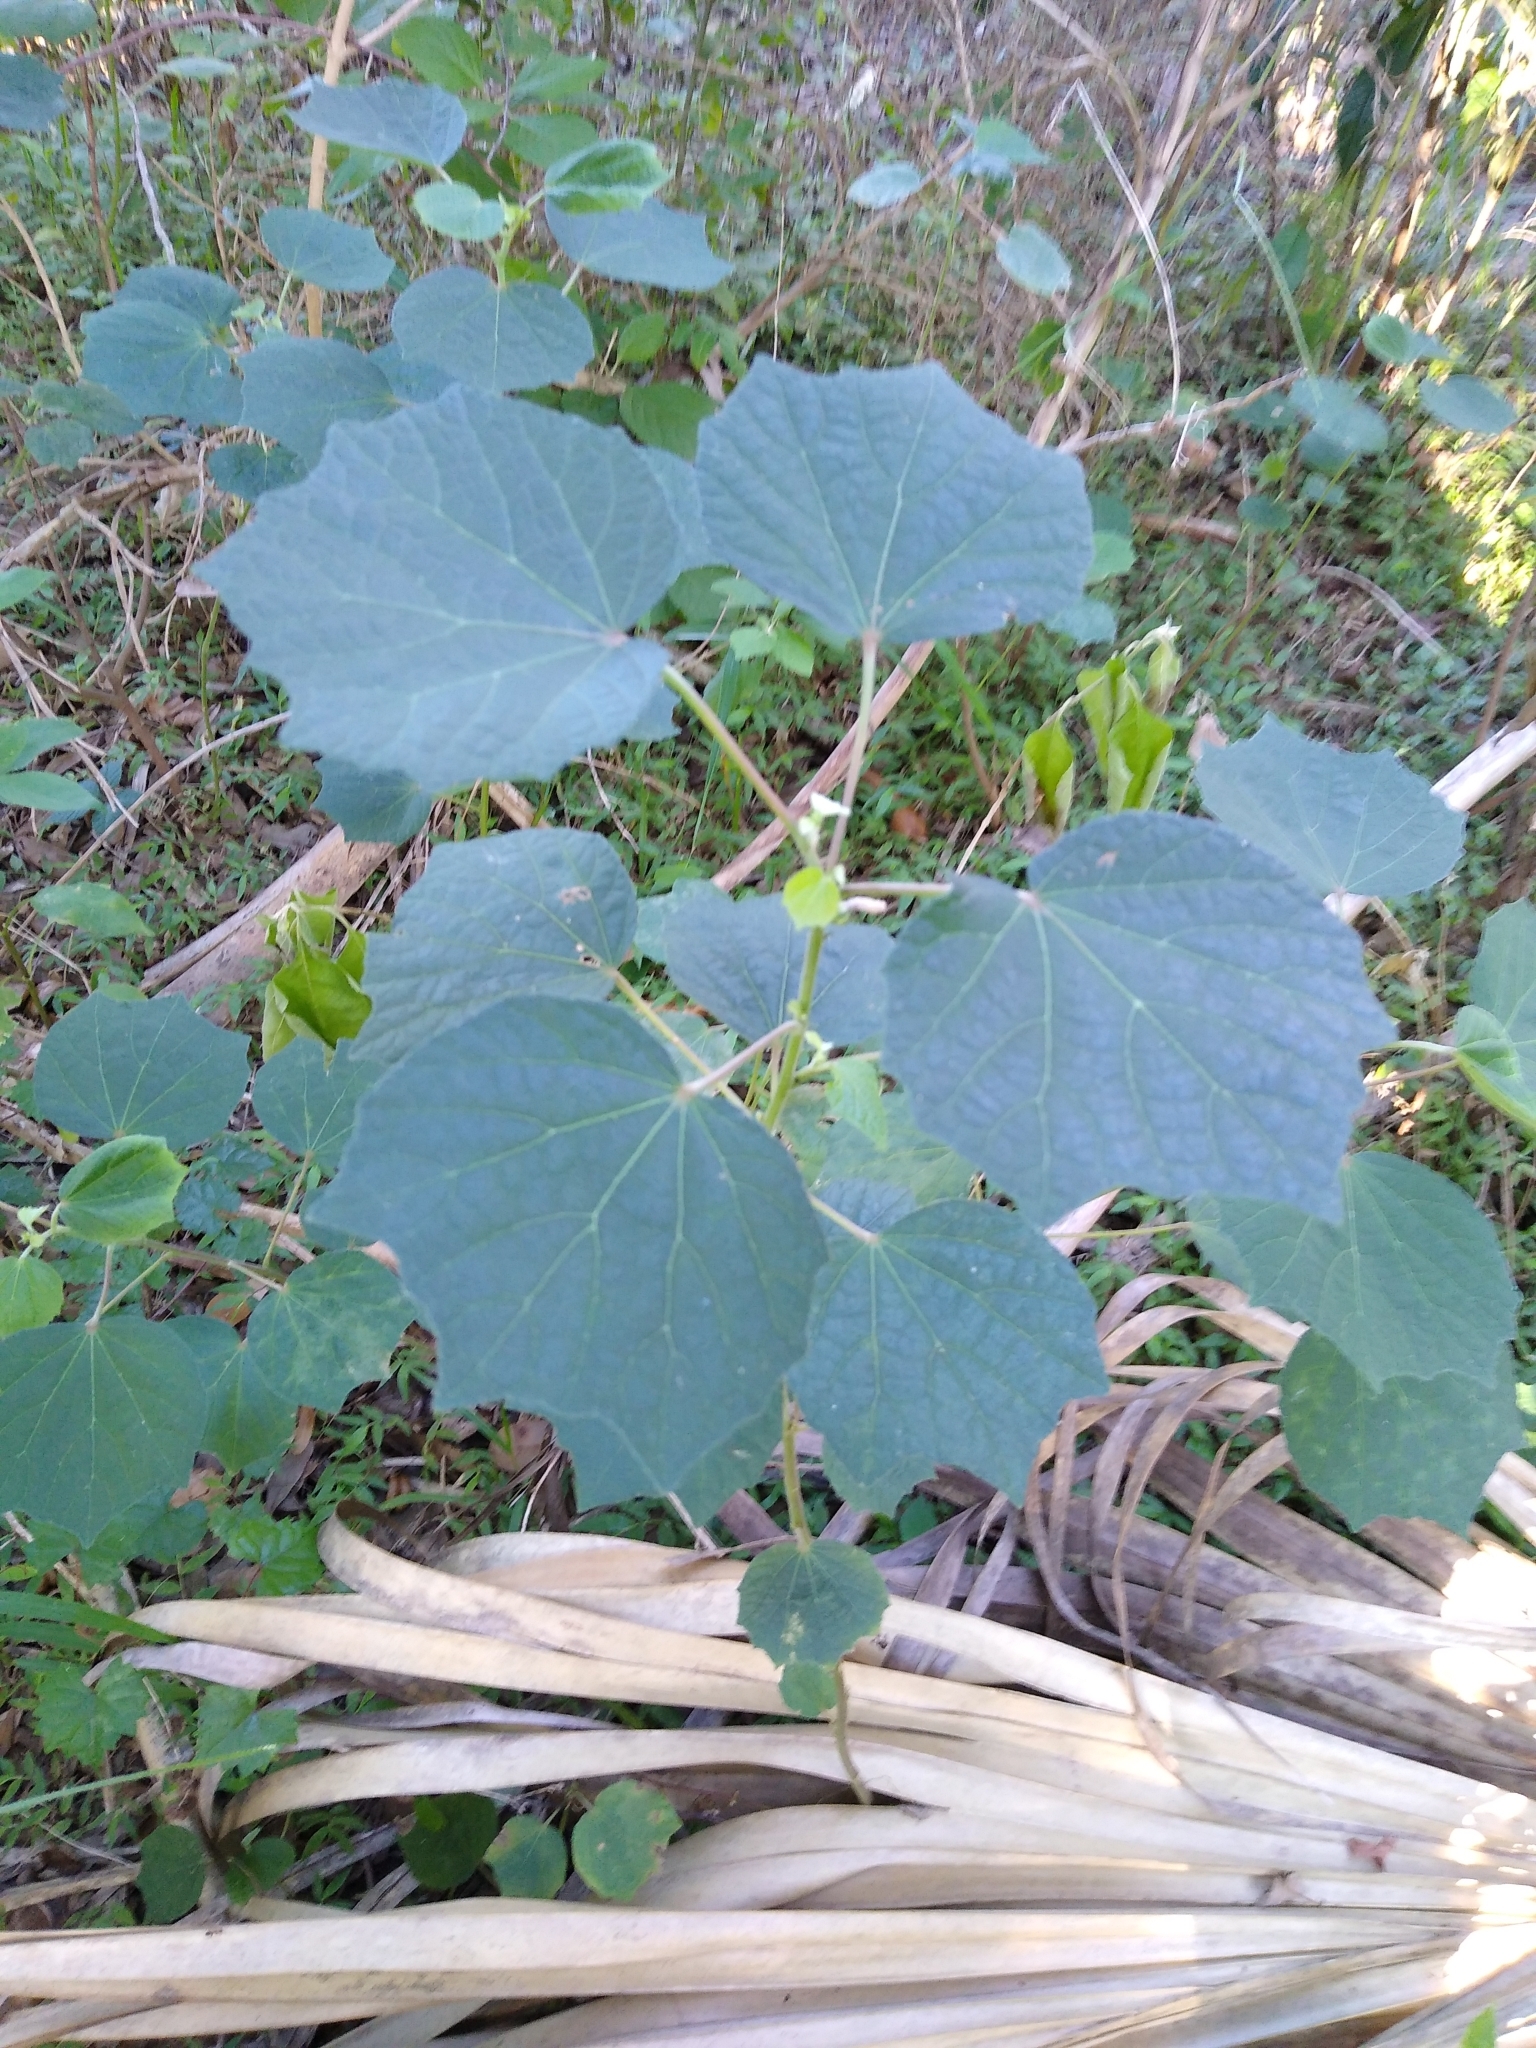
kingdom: Plantae
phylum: Tracheophyta
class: Magnoliopsida
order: Malvales
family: Malvaceae
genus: Urena
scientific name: Urena lobata
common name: Caesarweed
